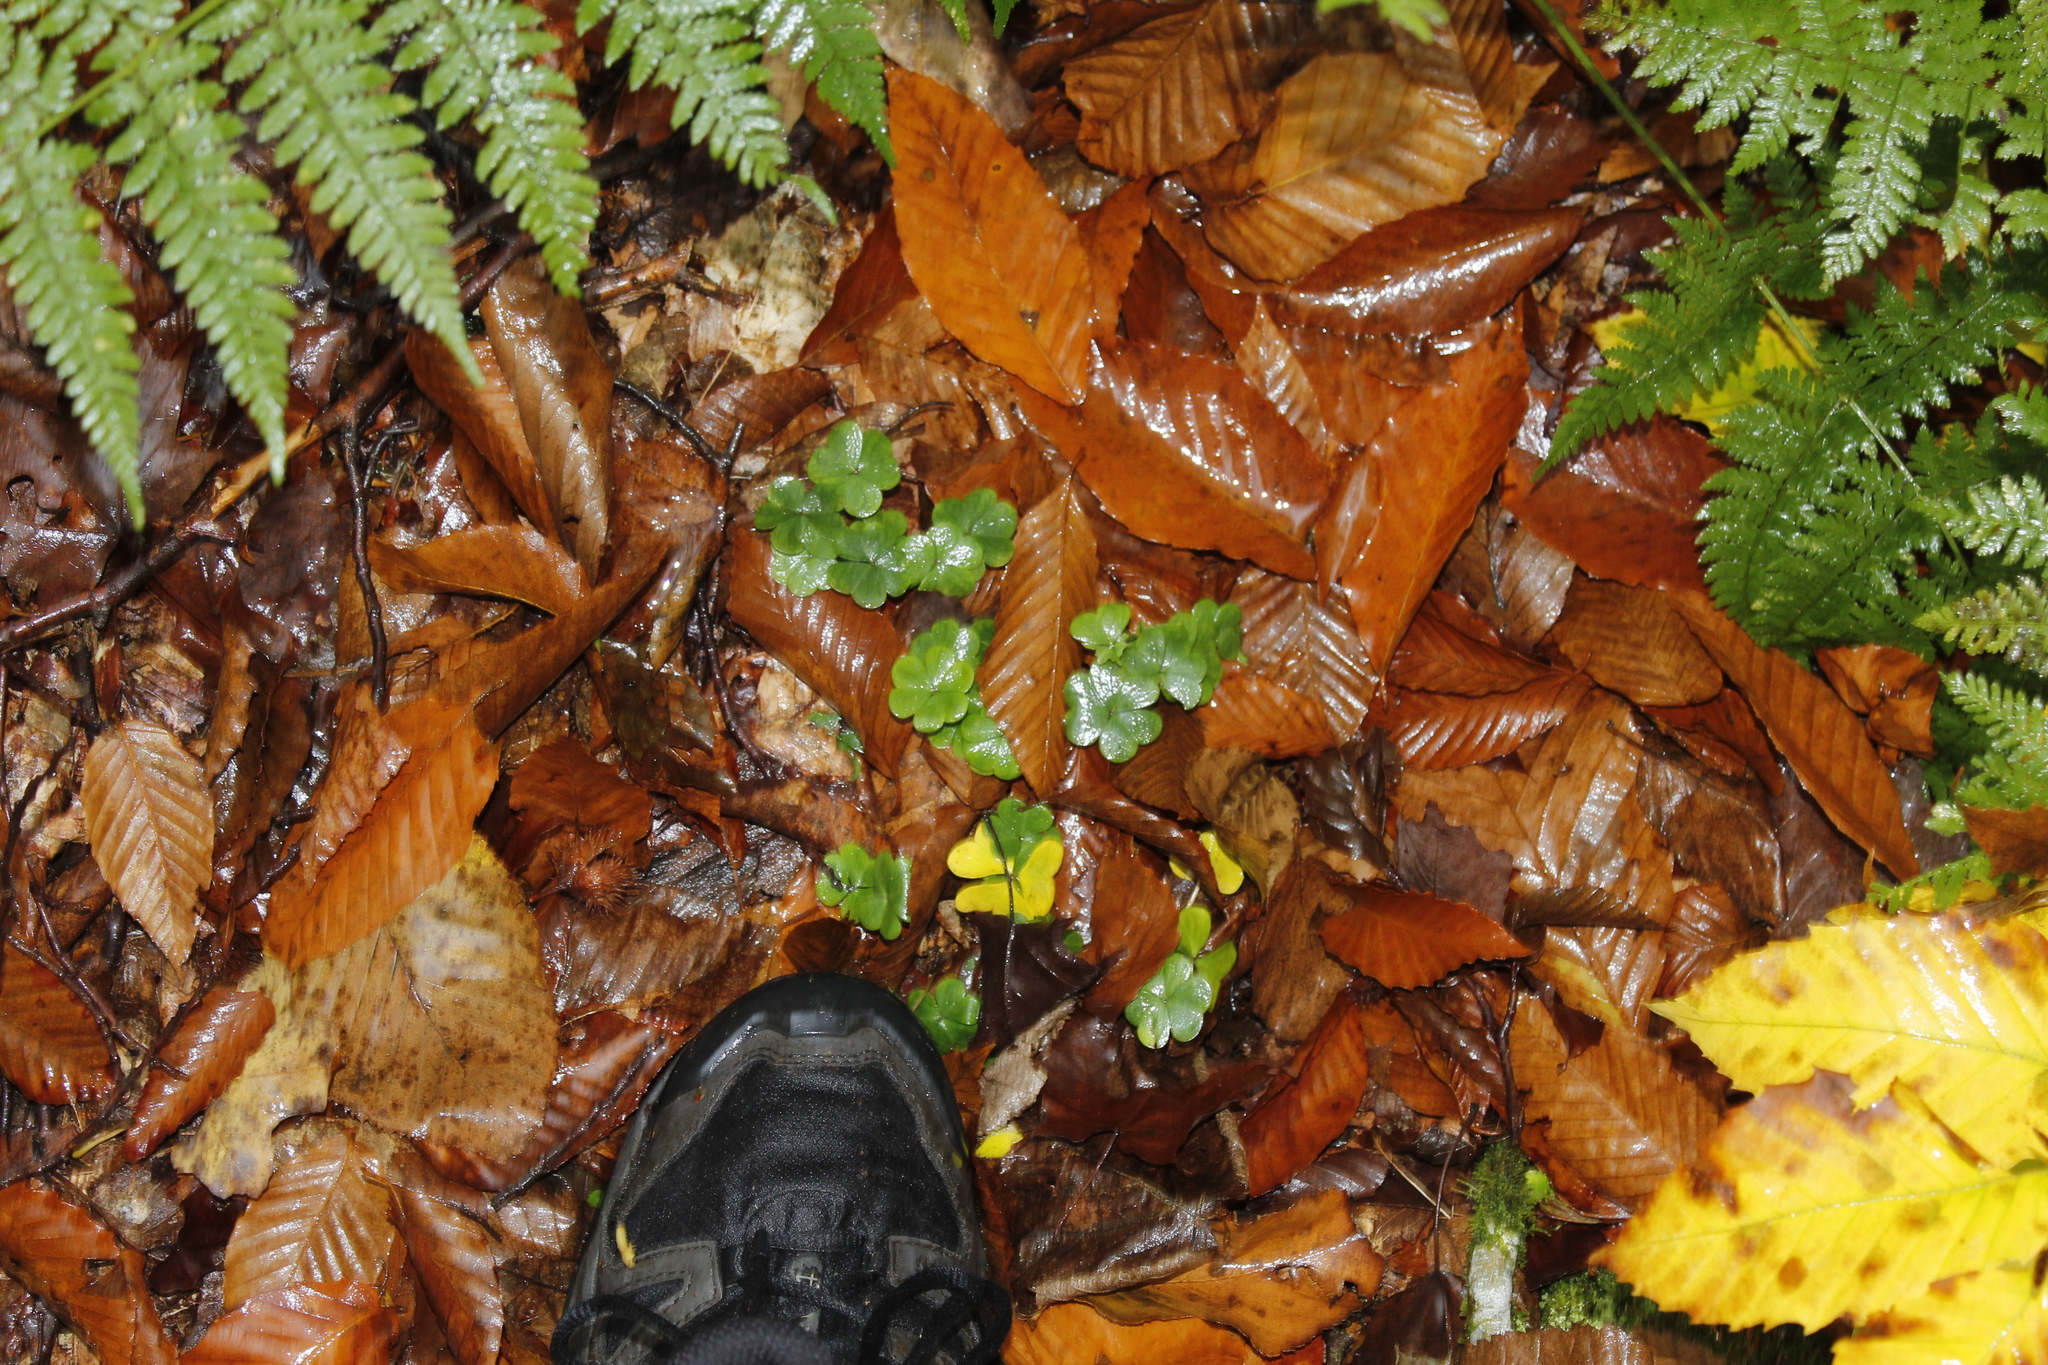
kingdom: Plantae
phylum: Tracheophyta
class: Magnoliopsida
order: Oxalidales
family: Oxalidaceae
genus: Oxalis
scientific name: Oxalis montana
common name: American wood-sorrel
